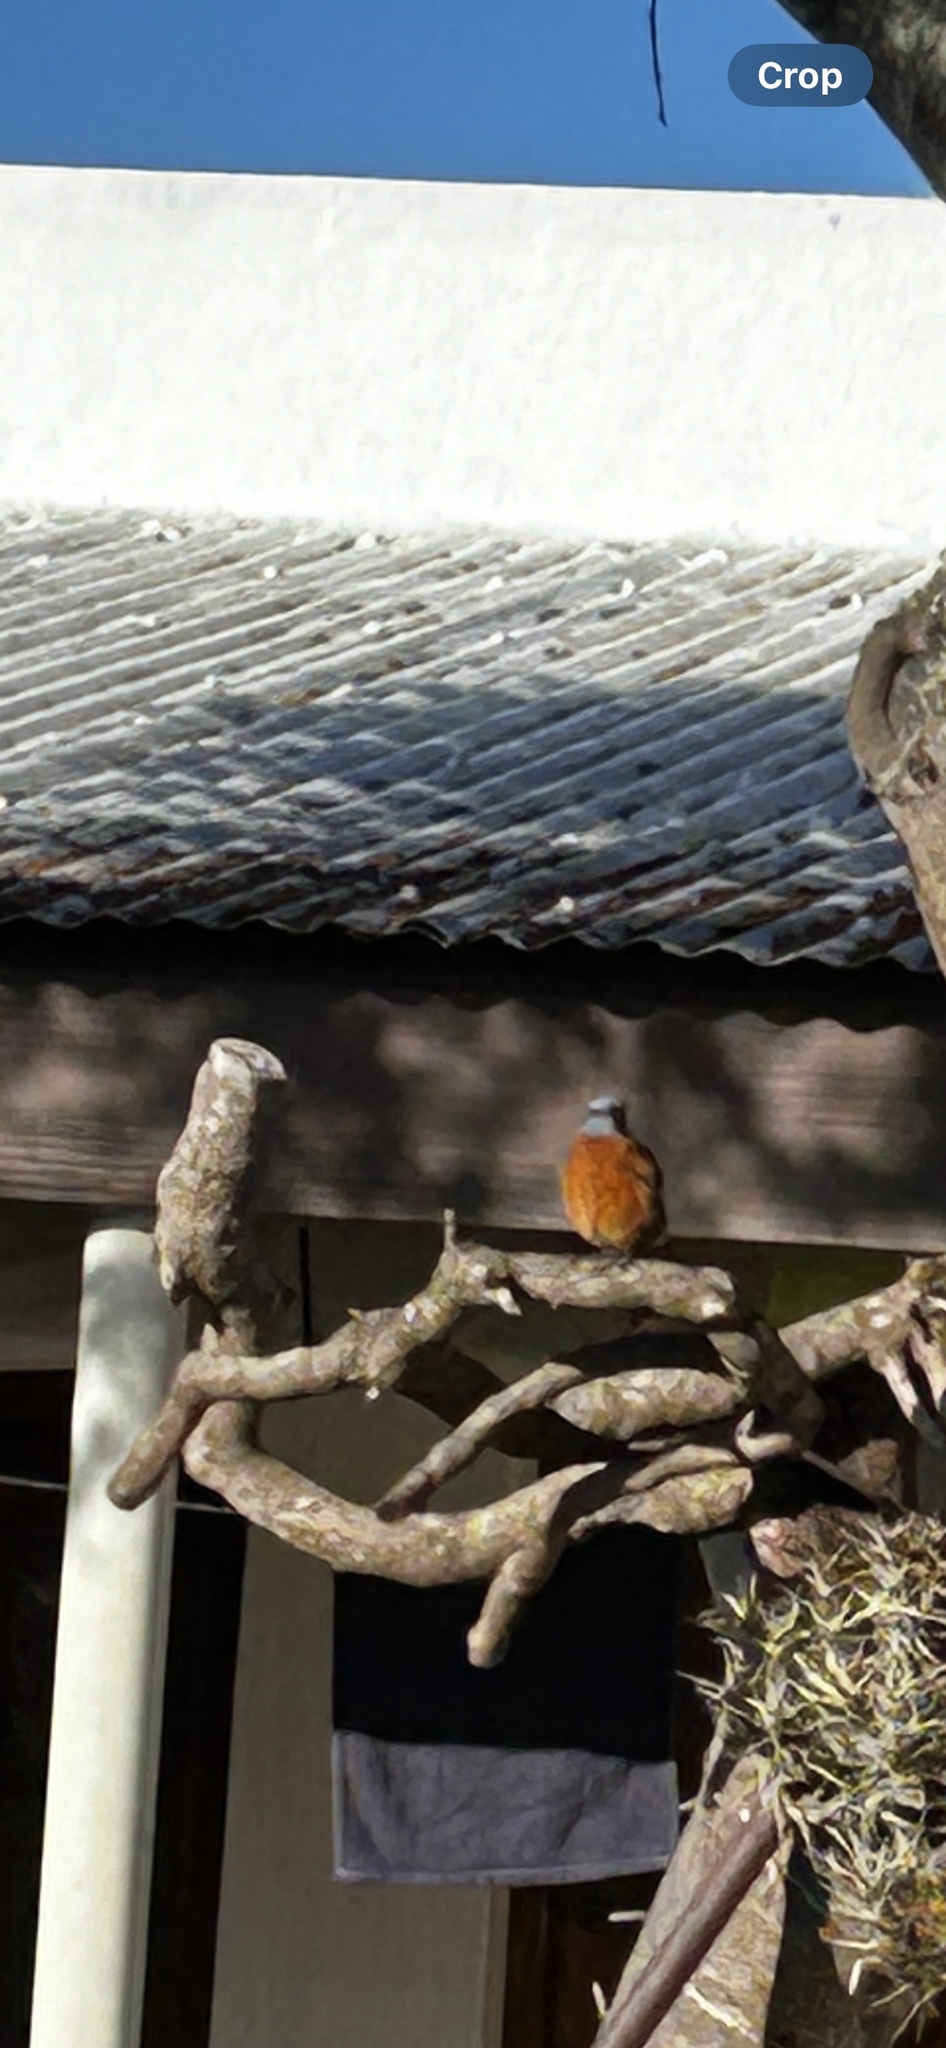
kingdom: Animalia
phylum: Chordata
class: Aves
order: Passeriformes
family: Muscicapidae
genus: Monticola
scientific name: Monticola rupestris
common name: Cape rock thrush
